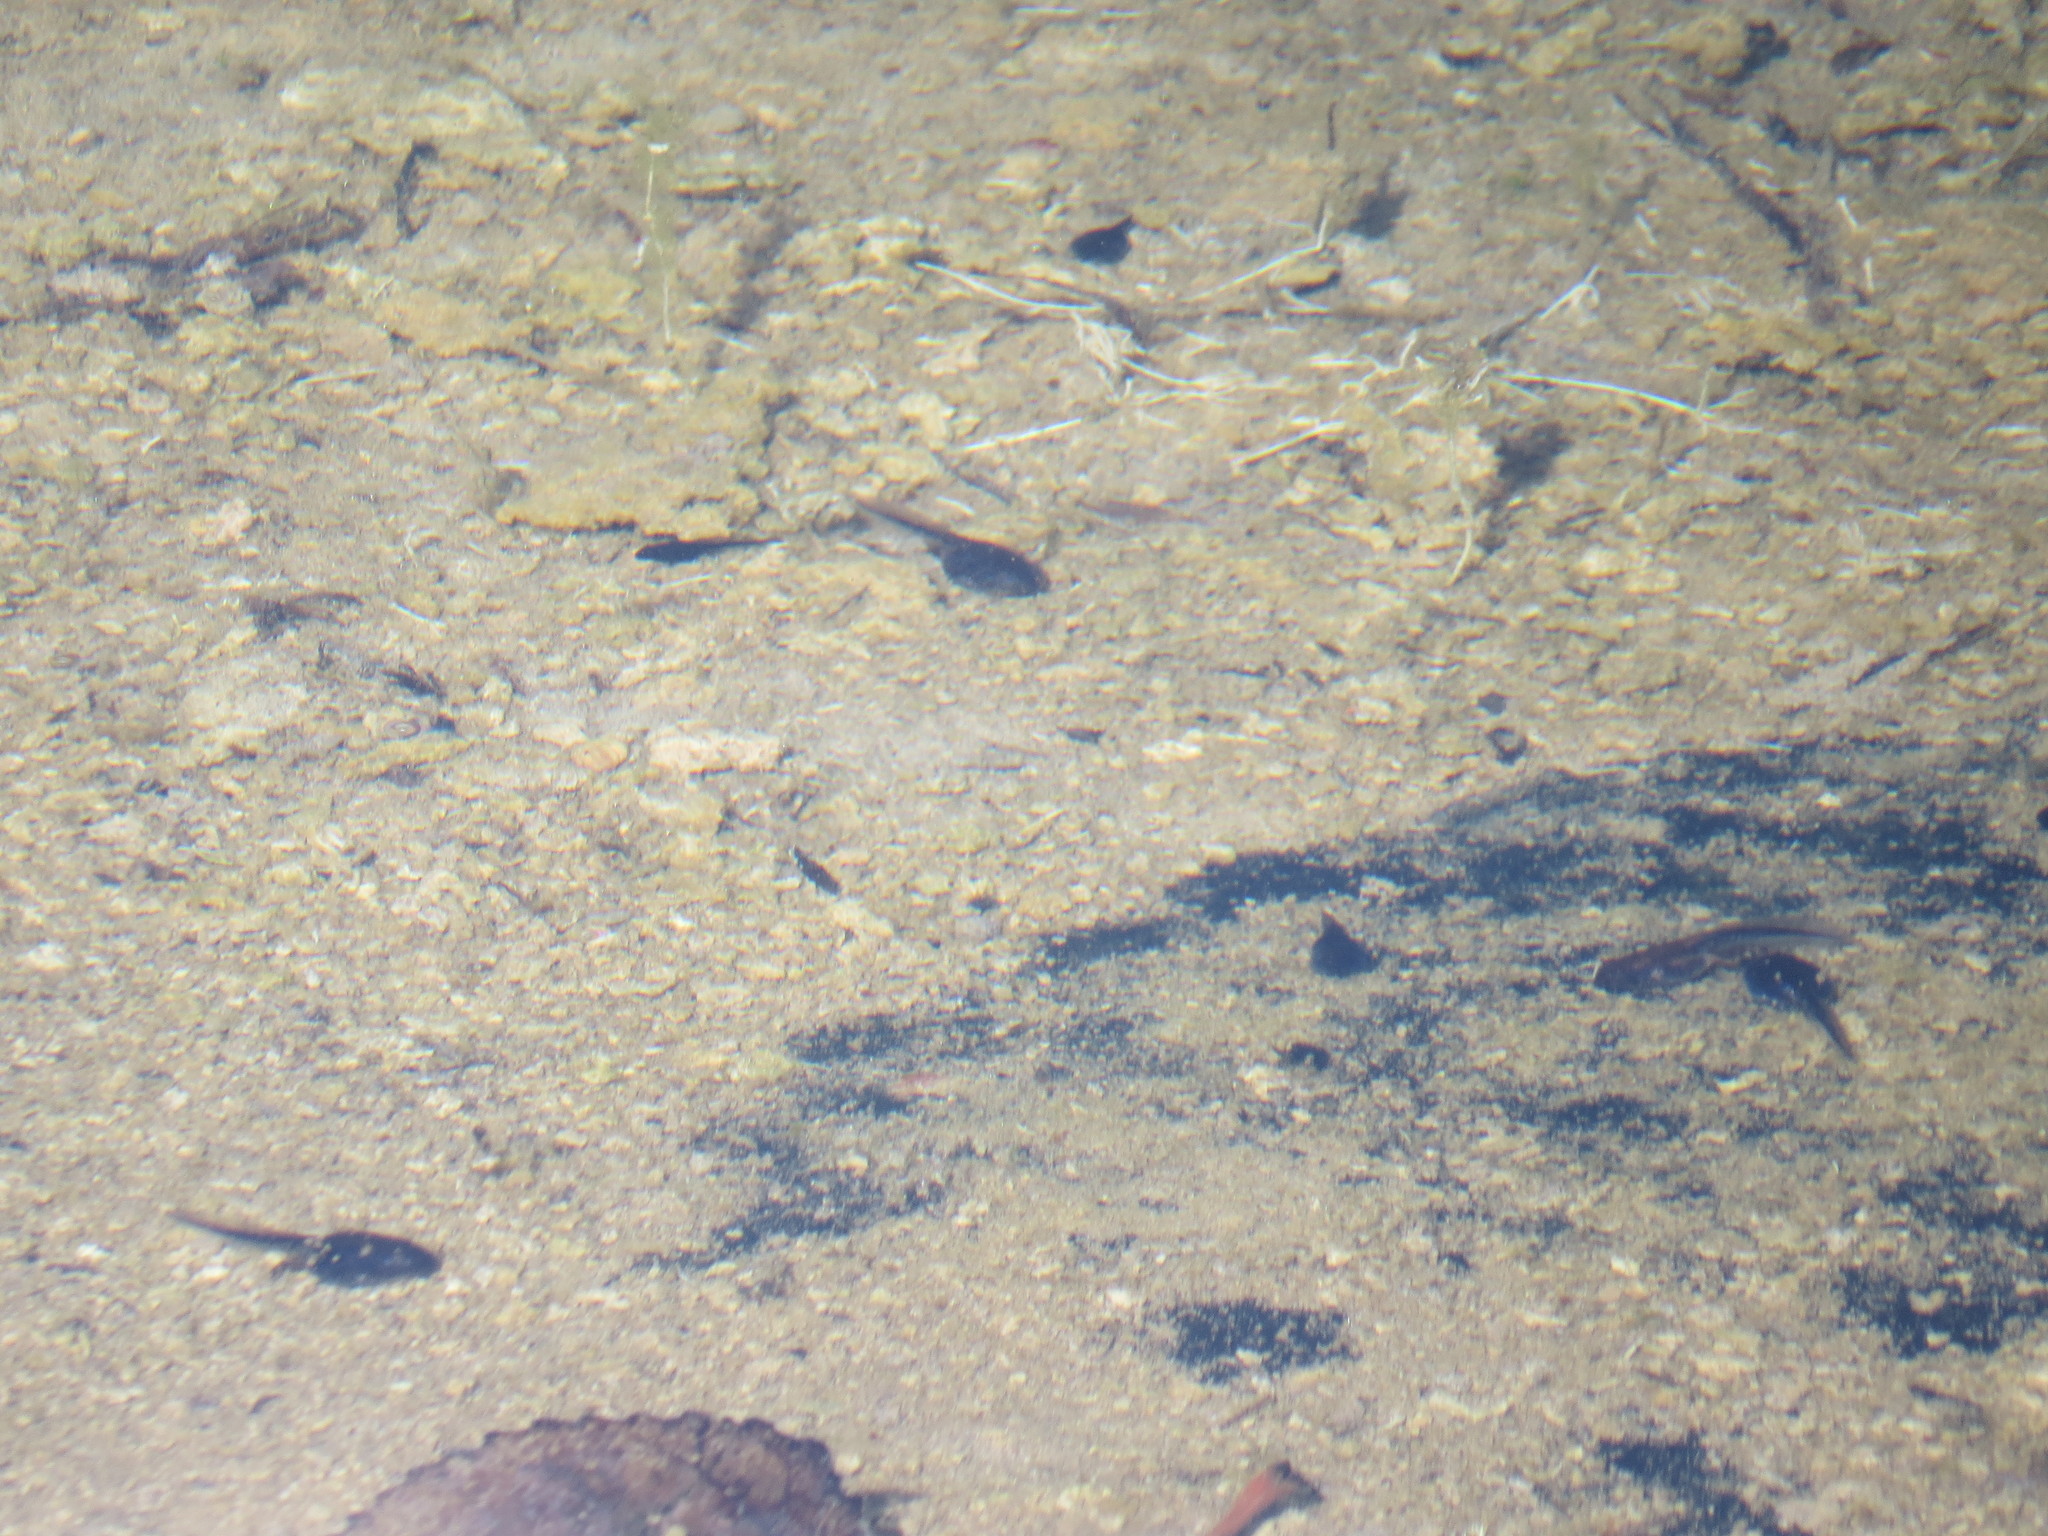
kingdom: Animalia
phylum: Chordata
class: Amphibia
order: Anura
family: Bufonidae
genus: Rhinella
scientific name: Rhinella arenarum
